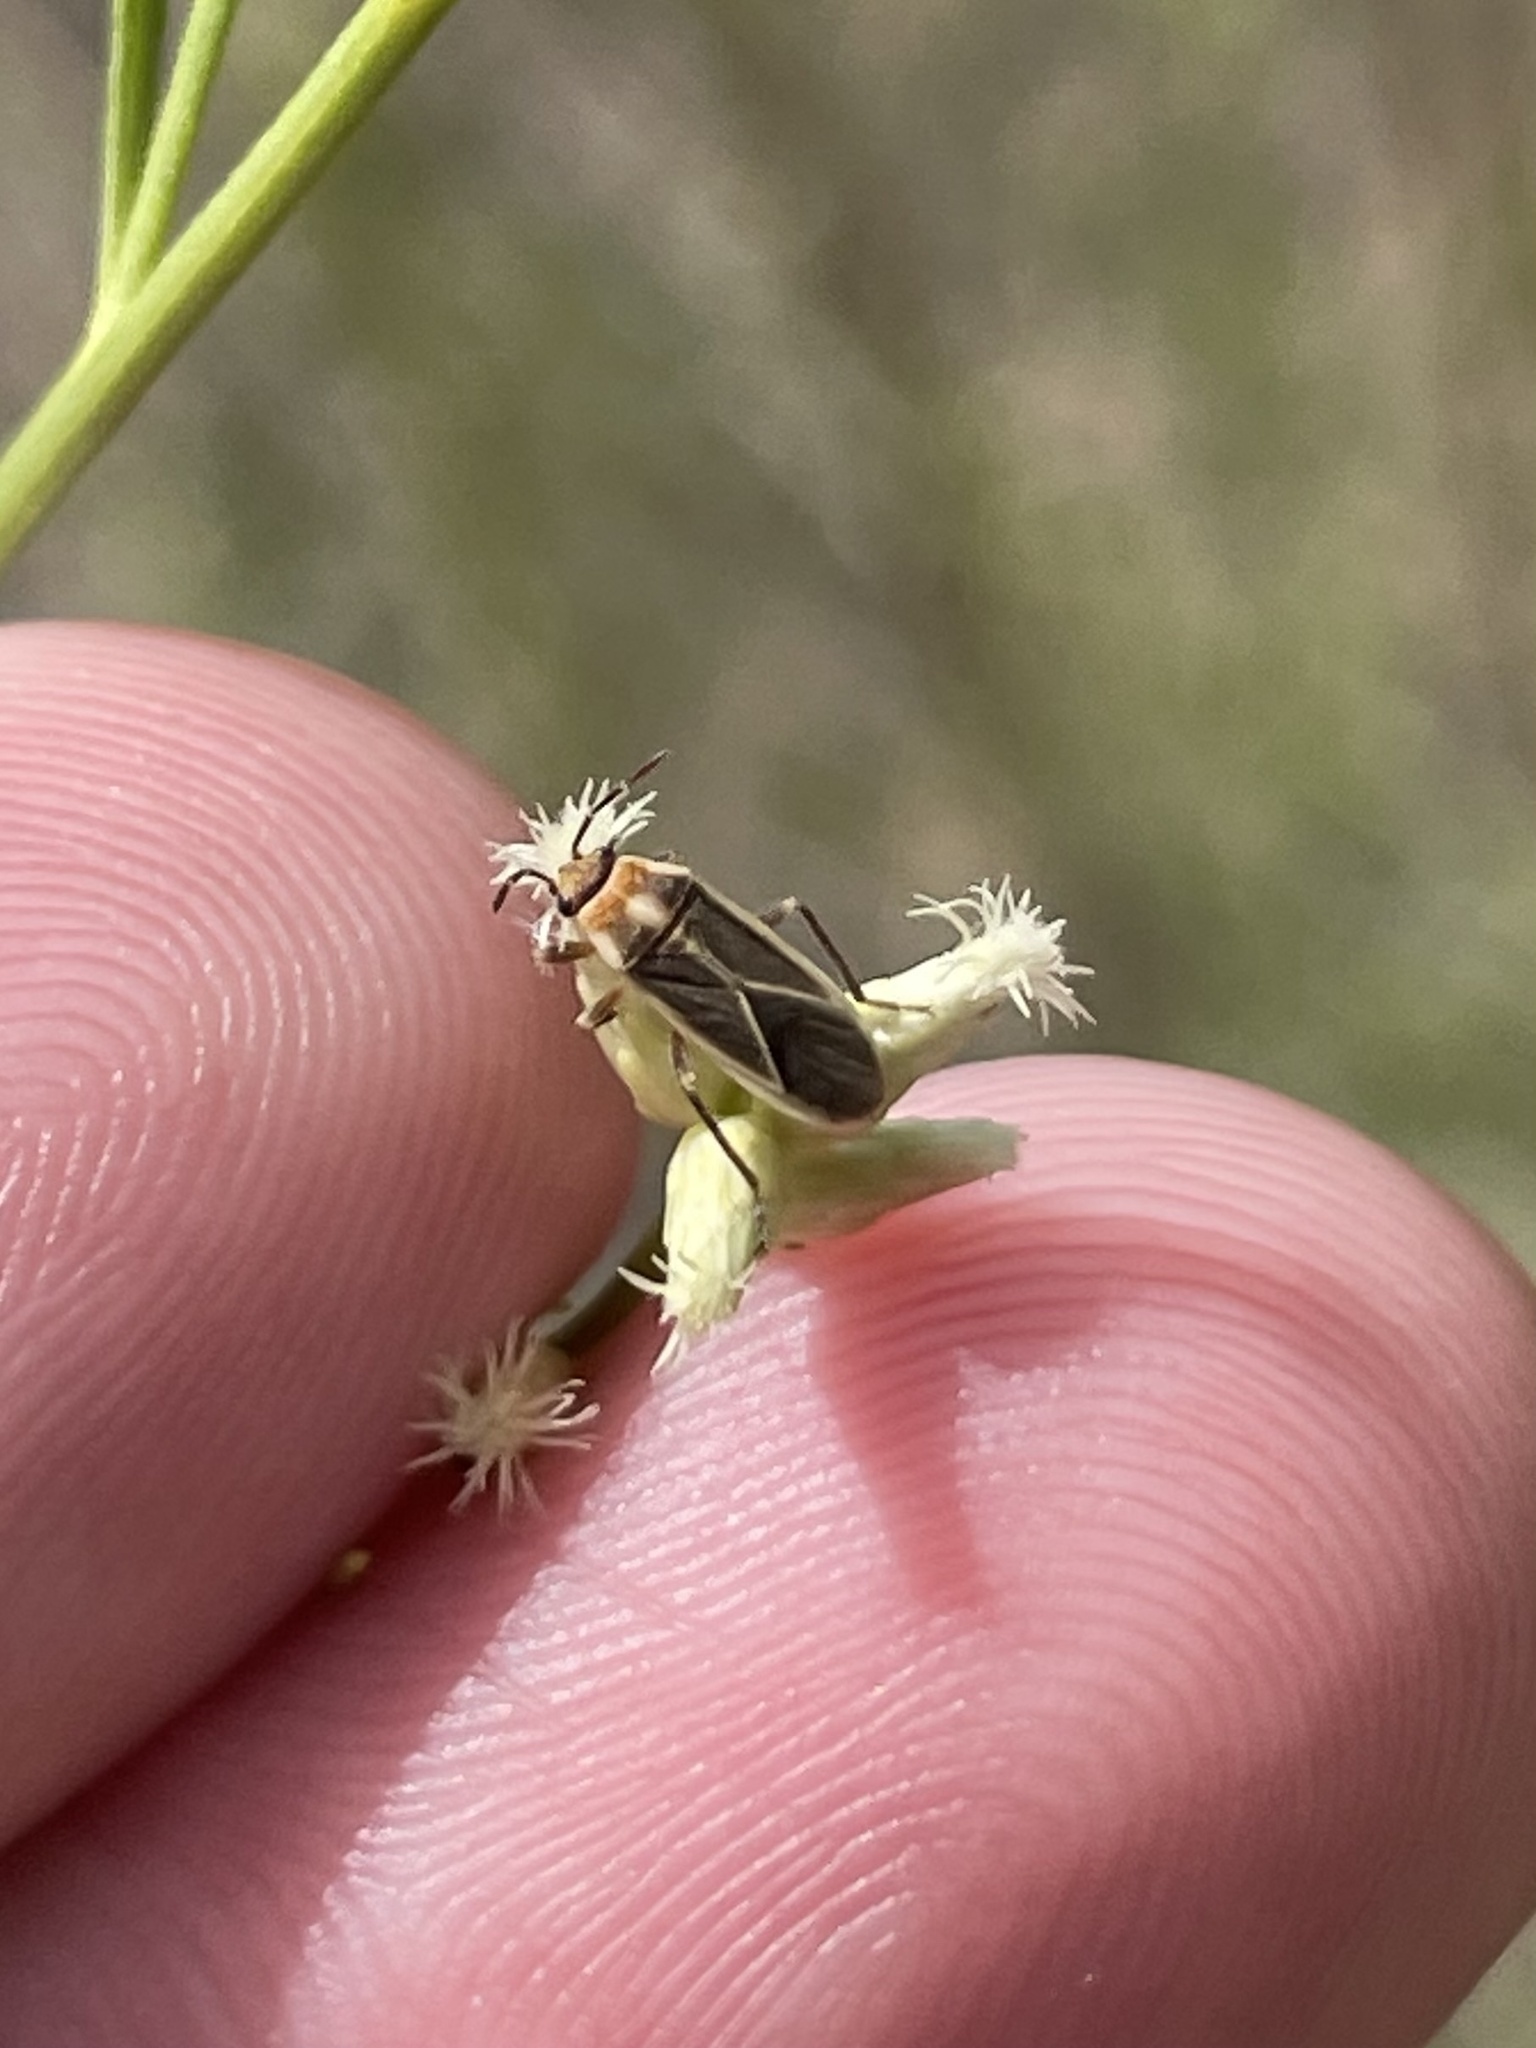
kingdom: Animalia
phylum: Arthropoda
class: Insecta
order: Hemiptera
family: Lygaeidae
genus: Ochrimnus
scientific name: Ochrimnus mimulus
